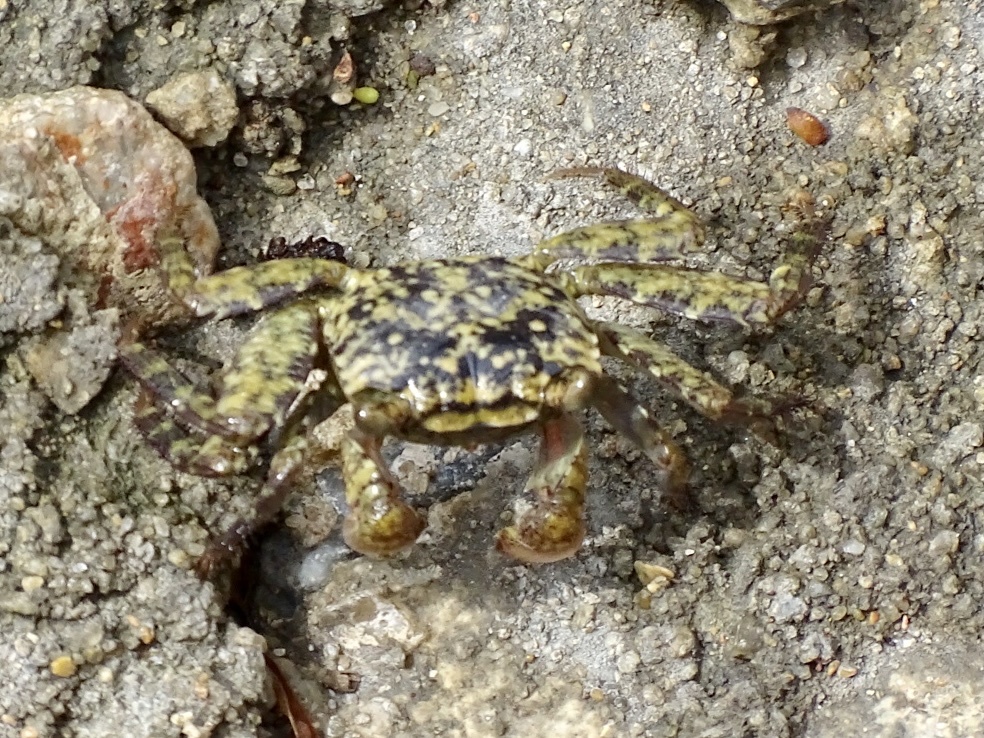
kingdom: Animalia
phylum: Arthropoda
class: Malacostraca
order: Decapoda
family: Sesarmidae
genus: Parasesarma
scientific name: Parasesarma pictum
